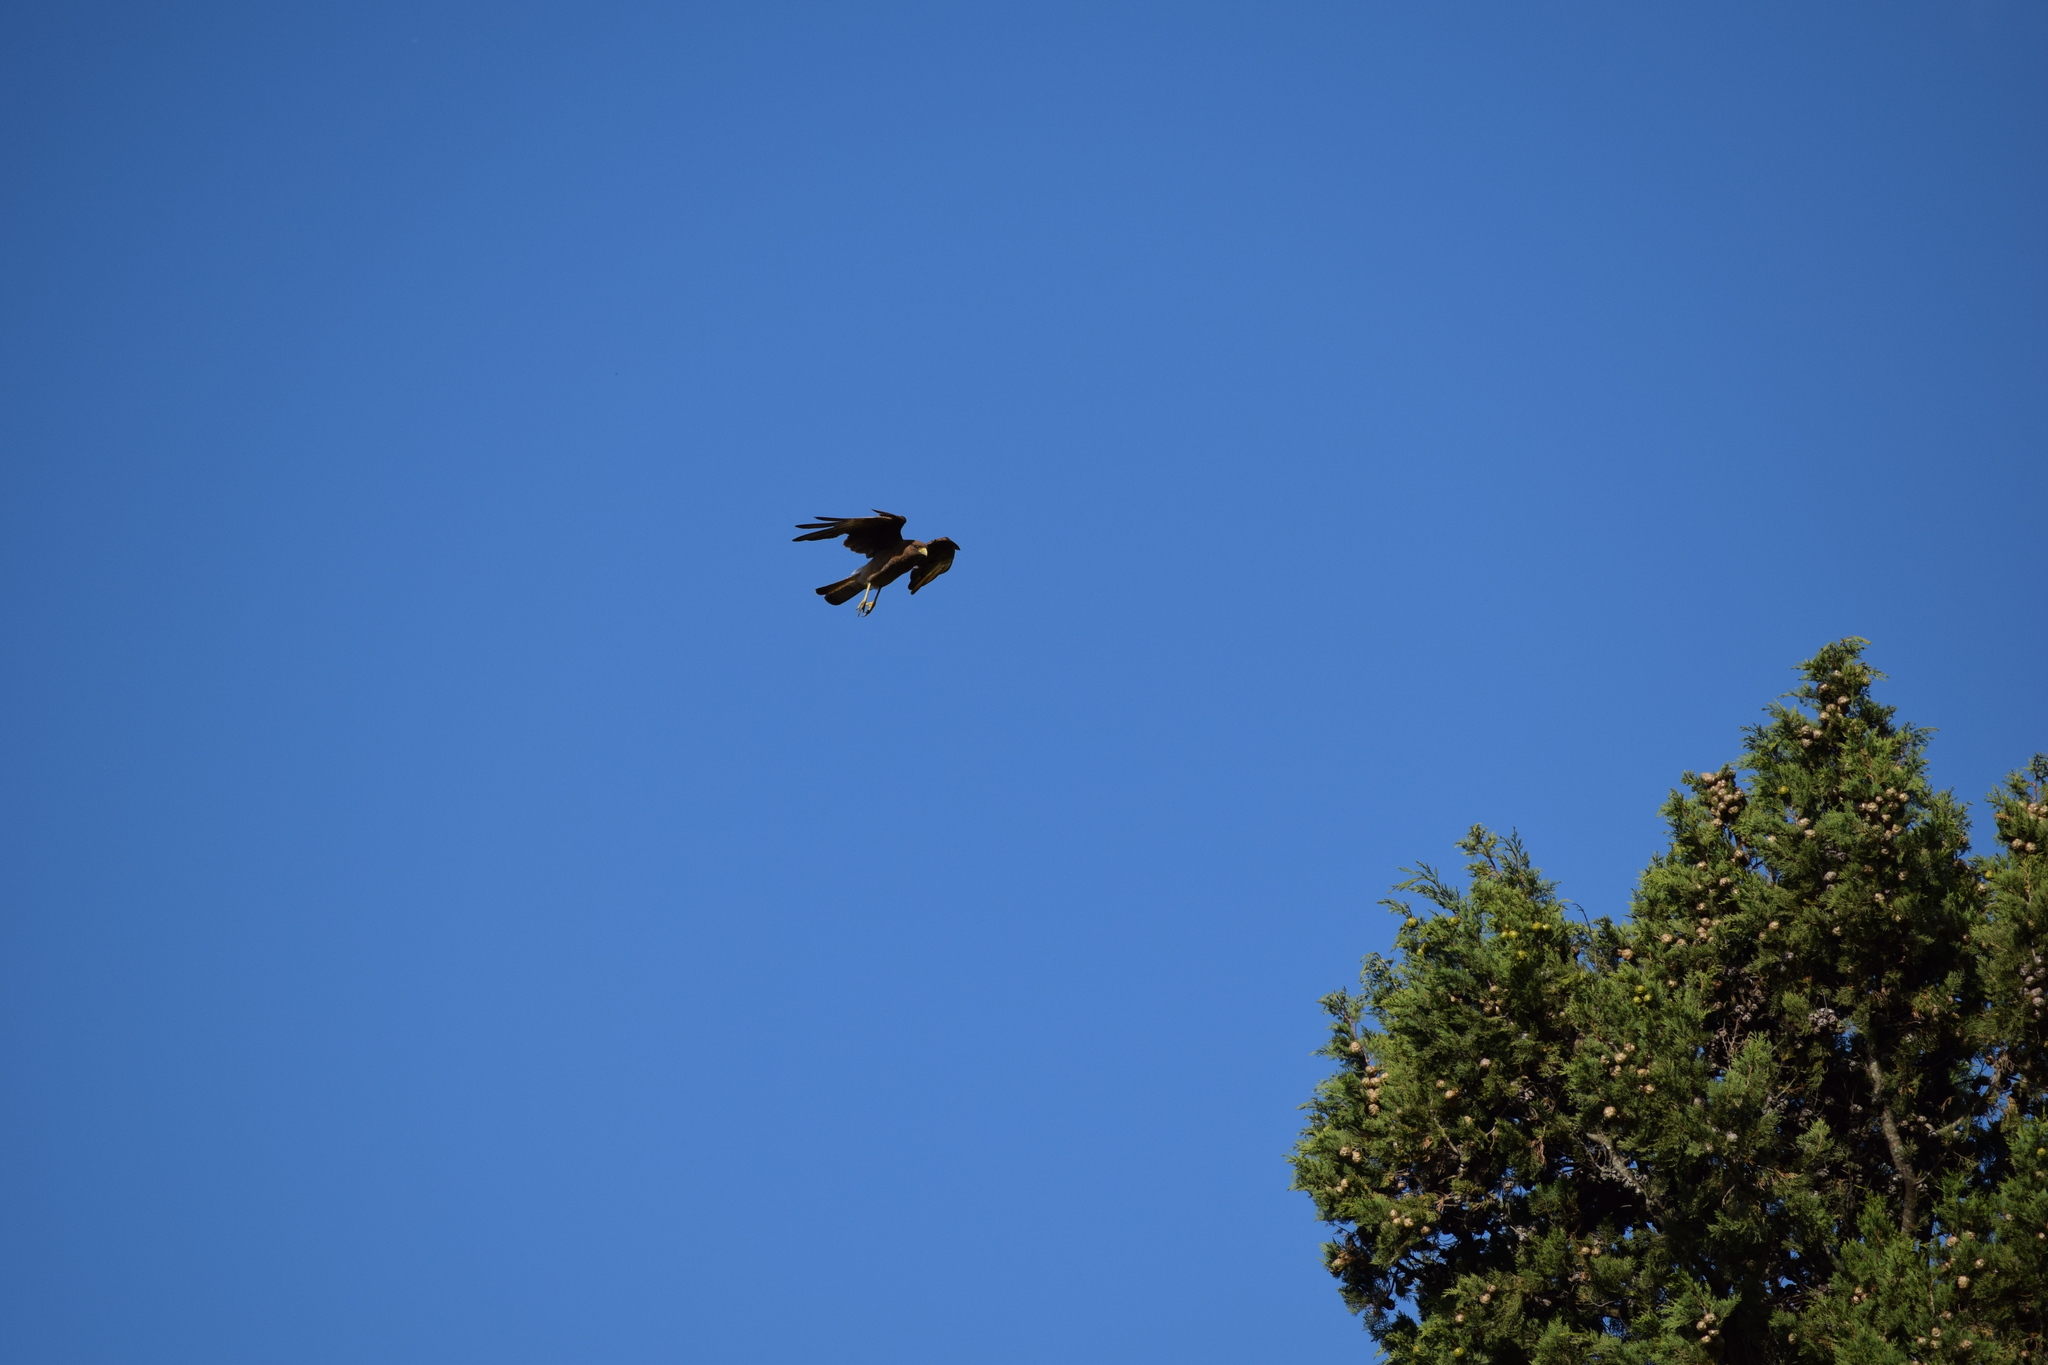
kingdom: Animalia
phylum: Chordata
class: Aves
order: Falconiformes
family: Falconidae
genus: Daptrius
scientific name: Daptrius
